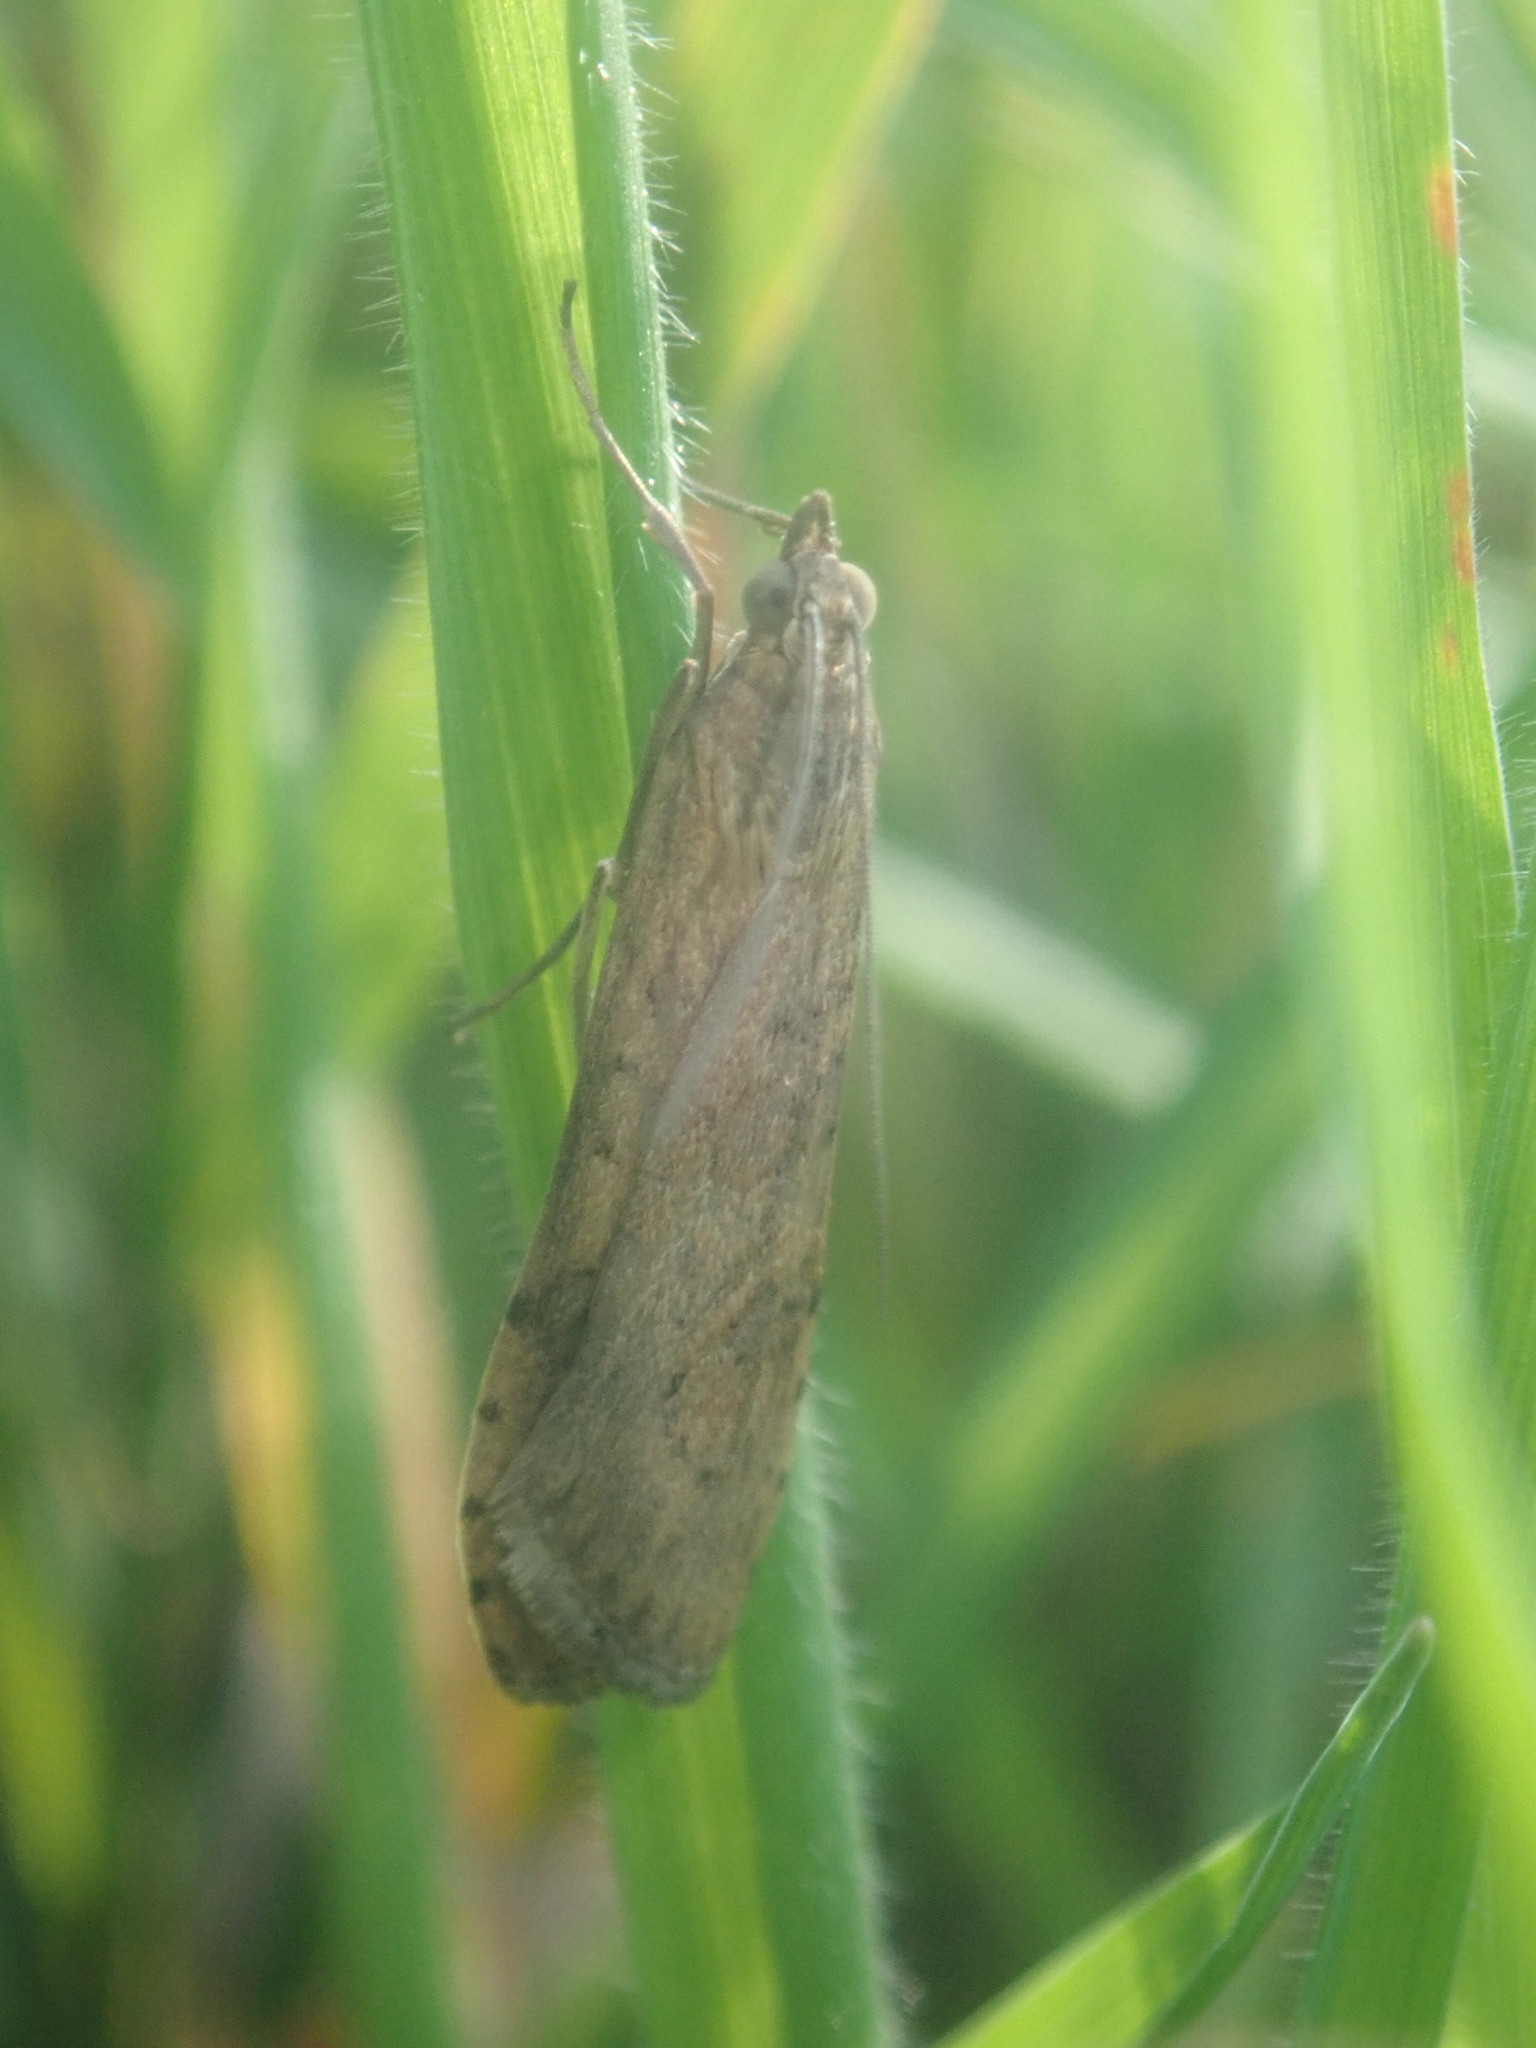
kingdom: Animalia
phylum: Arthropoda
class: Insecta
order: Lepidoptera
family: Crambidae
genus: Nomophila
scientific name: Nomophila noctuella
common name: Rush veneer
